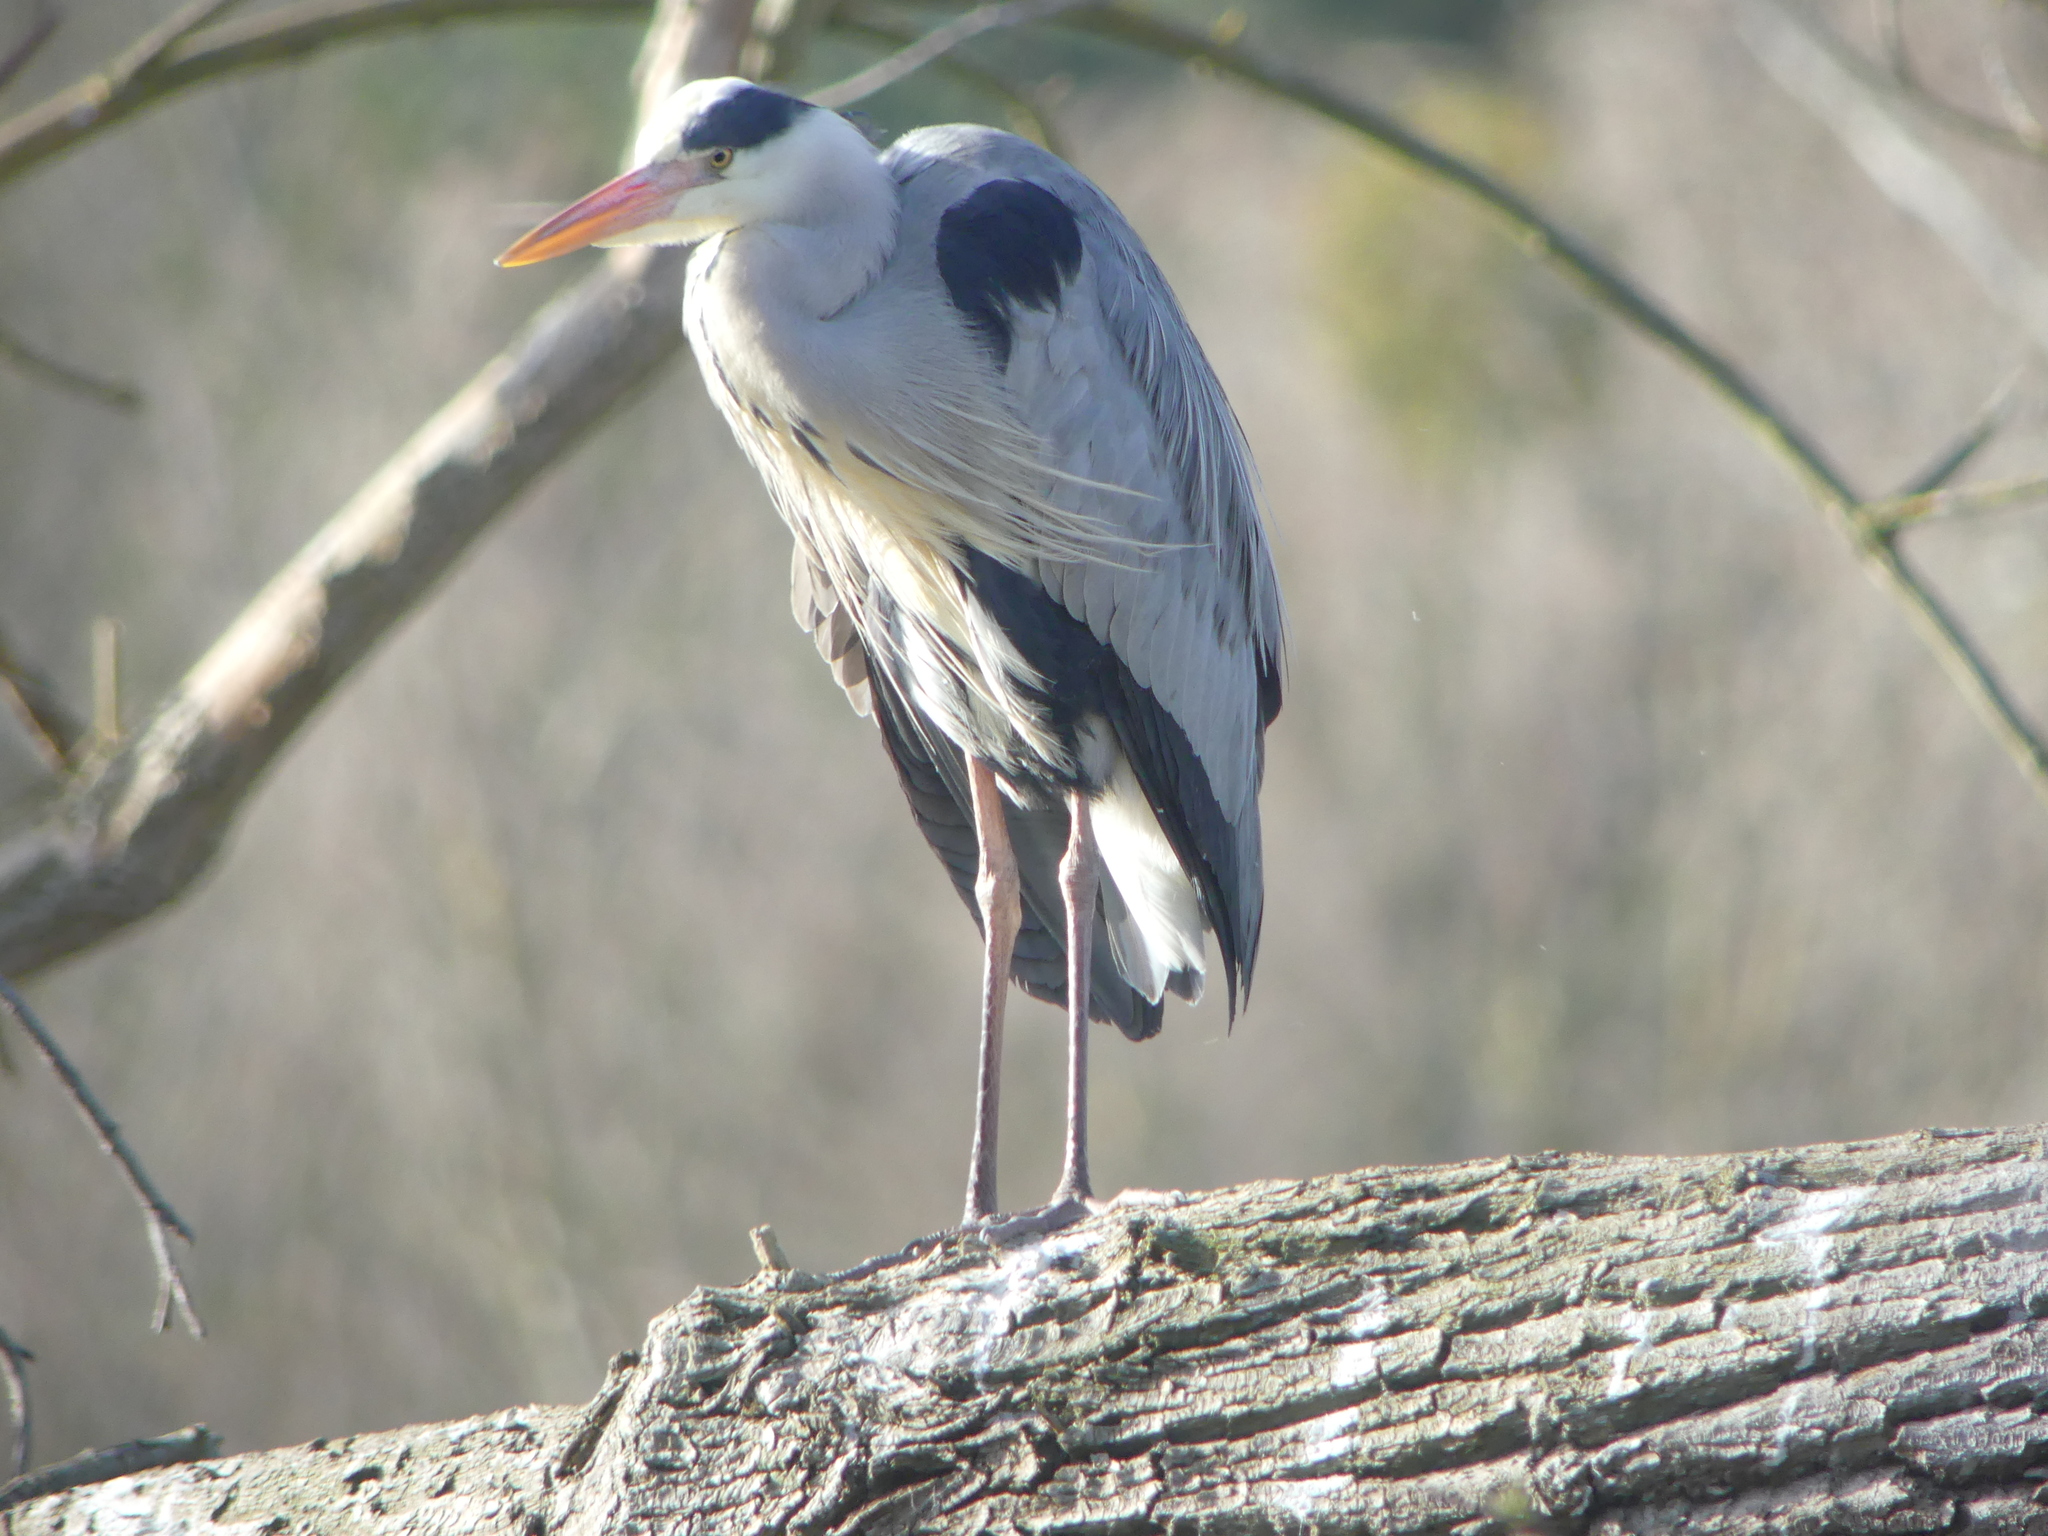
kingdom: Animalia
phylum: Chordata
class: Aves
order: Pelecaniformes
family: Ardeidae
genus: Ardea
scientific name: Ardea cinerea
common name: Grey heron
